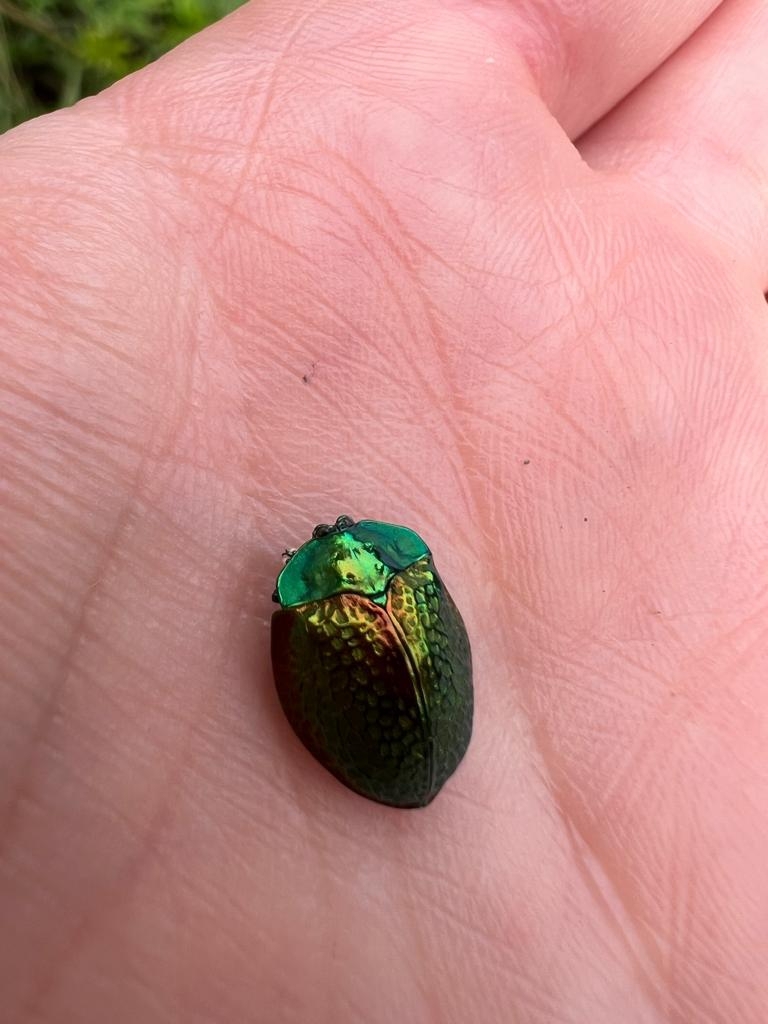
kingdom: Animalia
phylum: Arthropoda
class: Insecta
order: Coleoptera
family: Chrysomelidae
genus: Stolas
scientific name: Stolas festiva
